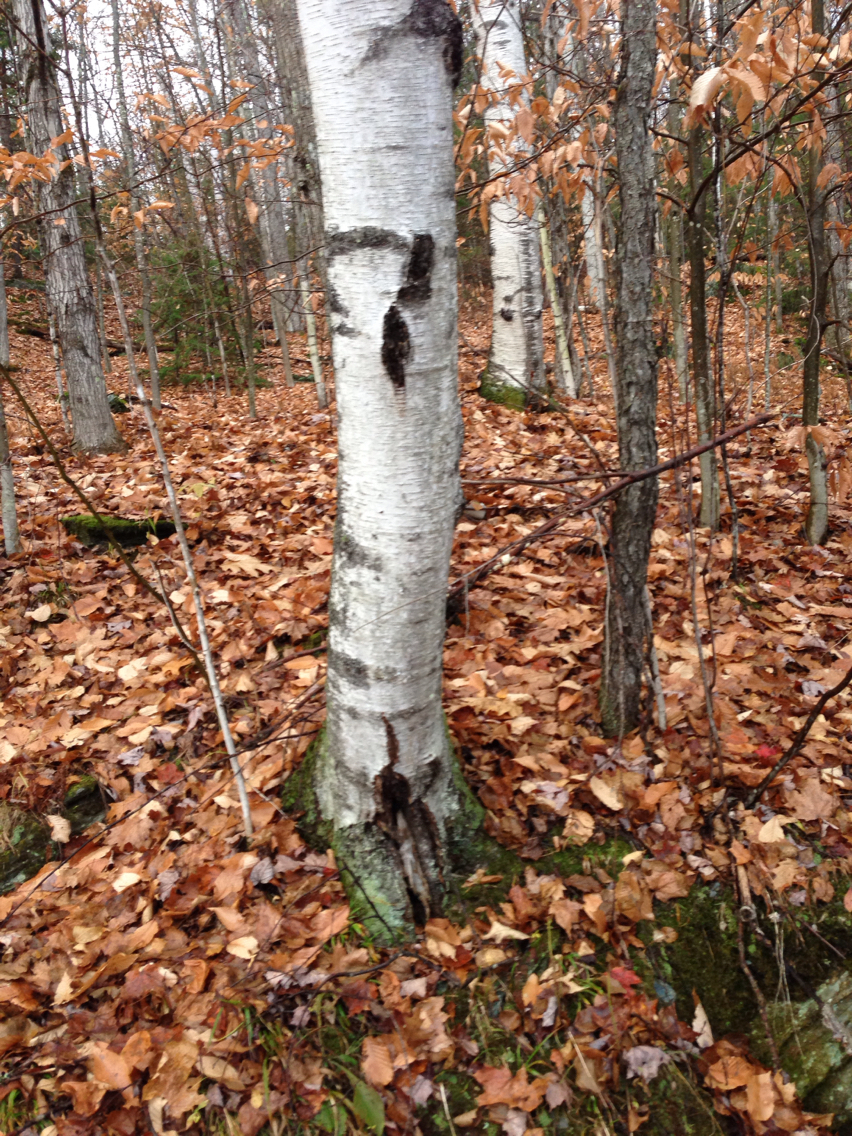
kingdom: Plantae
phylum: Tracheophyta
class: Magnoliopsida
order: Fagales
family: Betulaceae
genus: Betula
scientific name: Betula populifolia
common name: Fire birch
